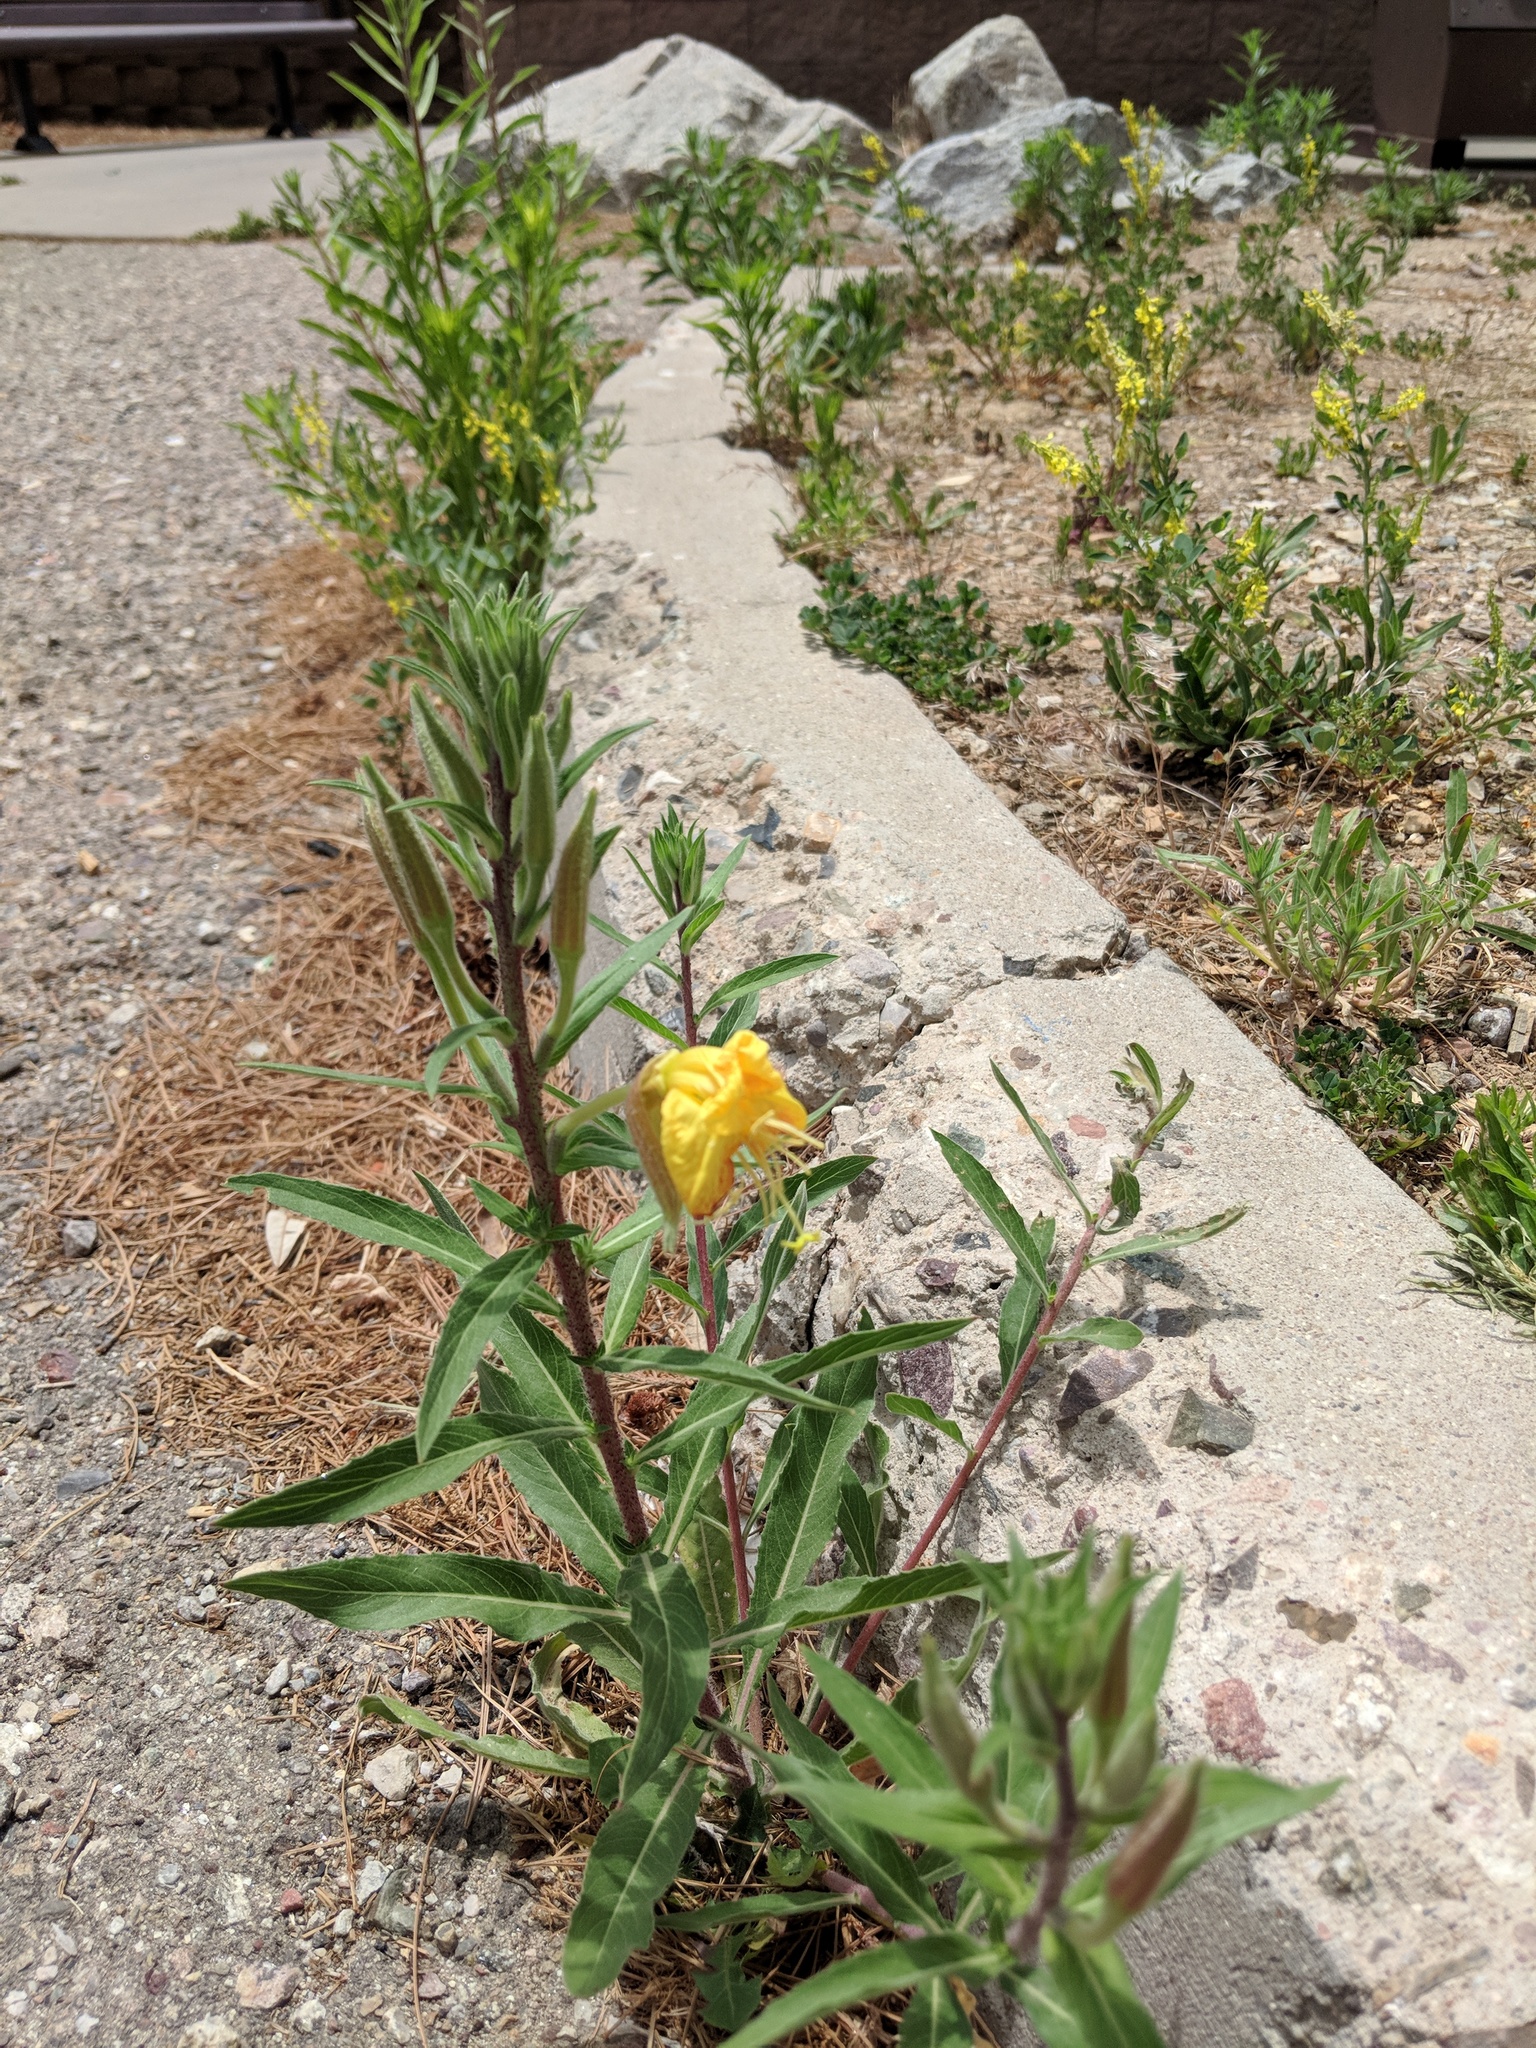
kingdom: Plantae
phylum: Tracheophyta
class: Magnoliopsida
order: Myrtales
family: Onagraceae
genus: Oenothera
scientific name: Oenothera elata
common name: Hooker's evening-primrose
